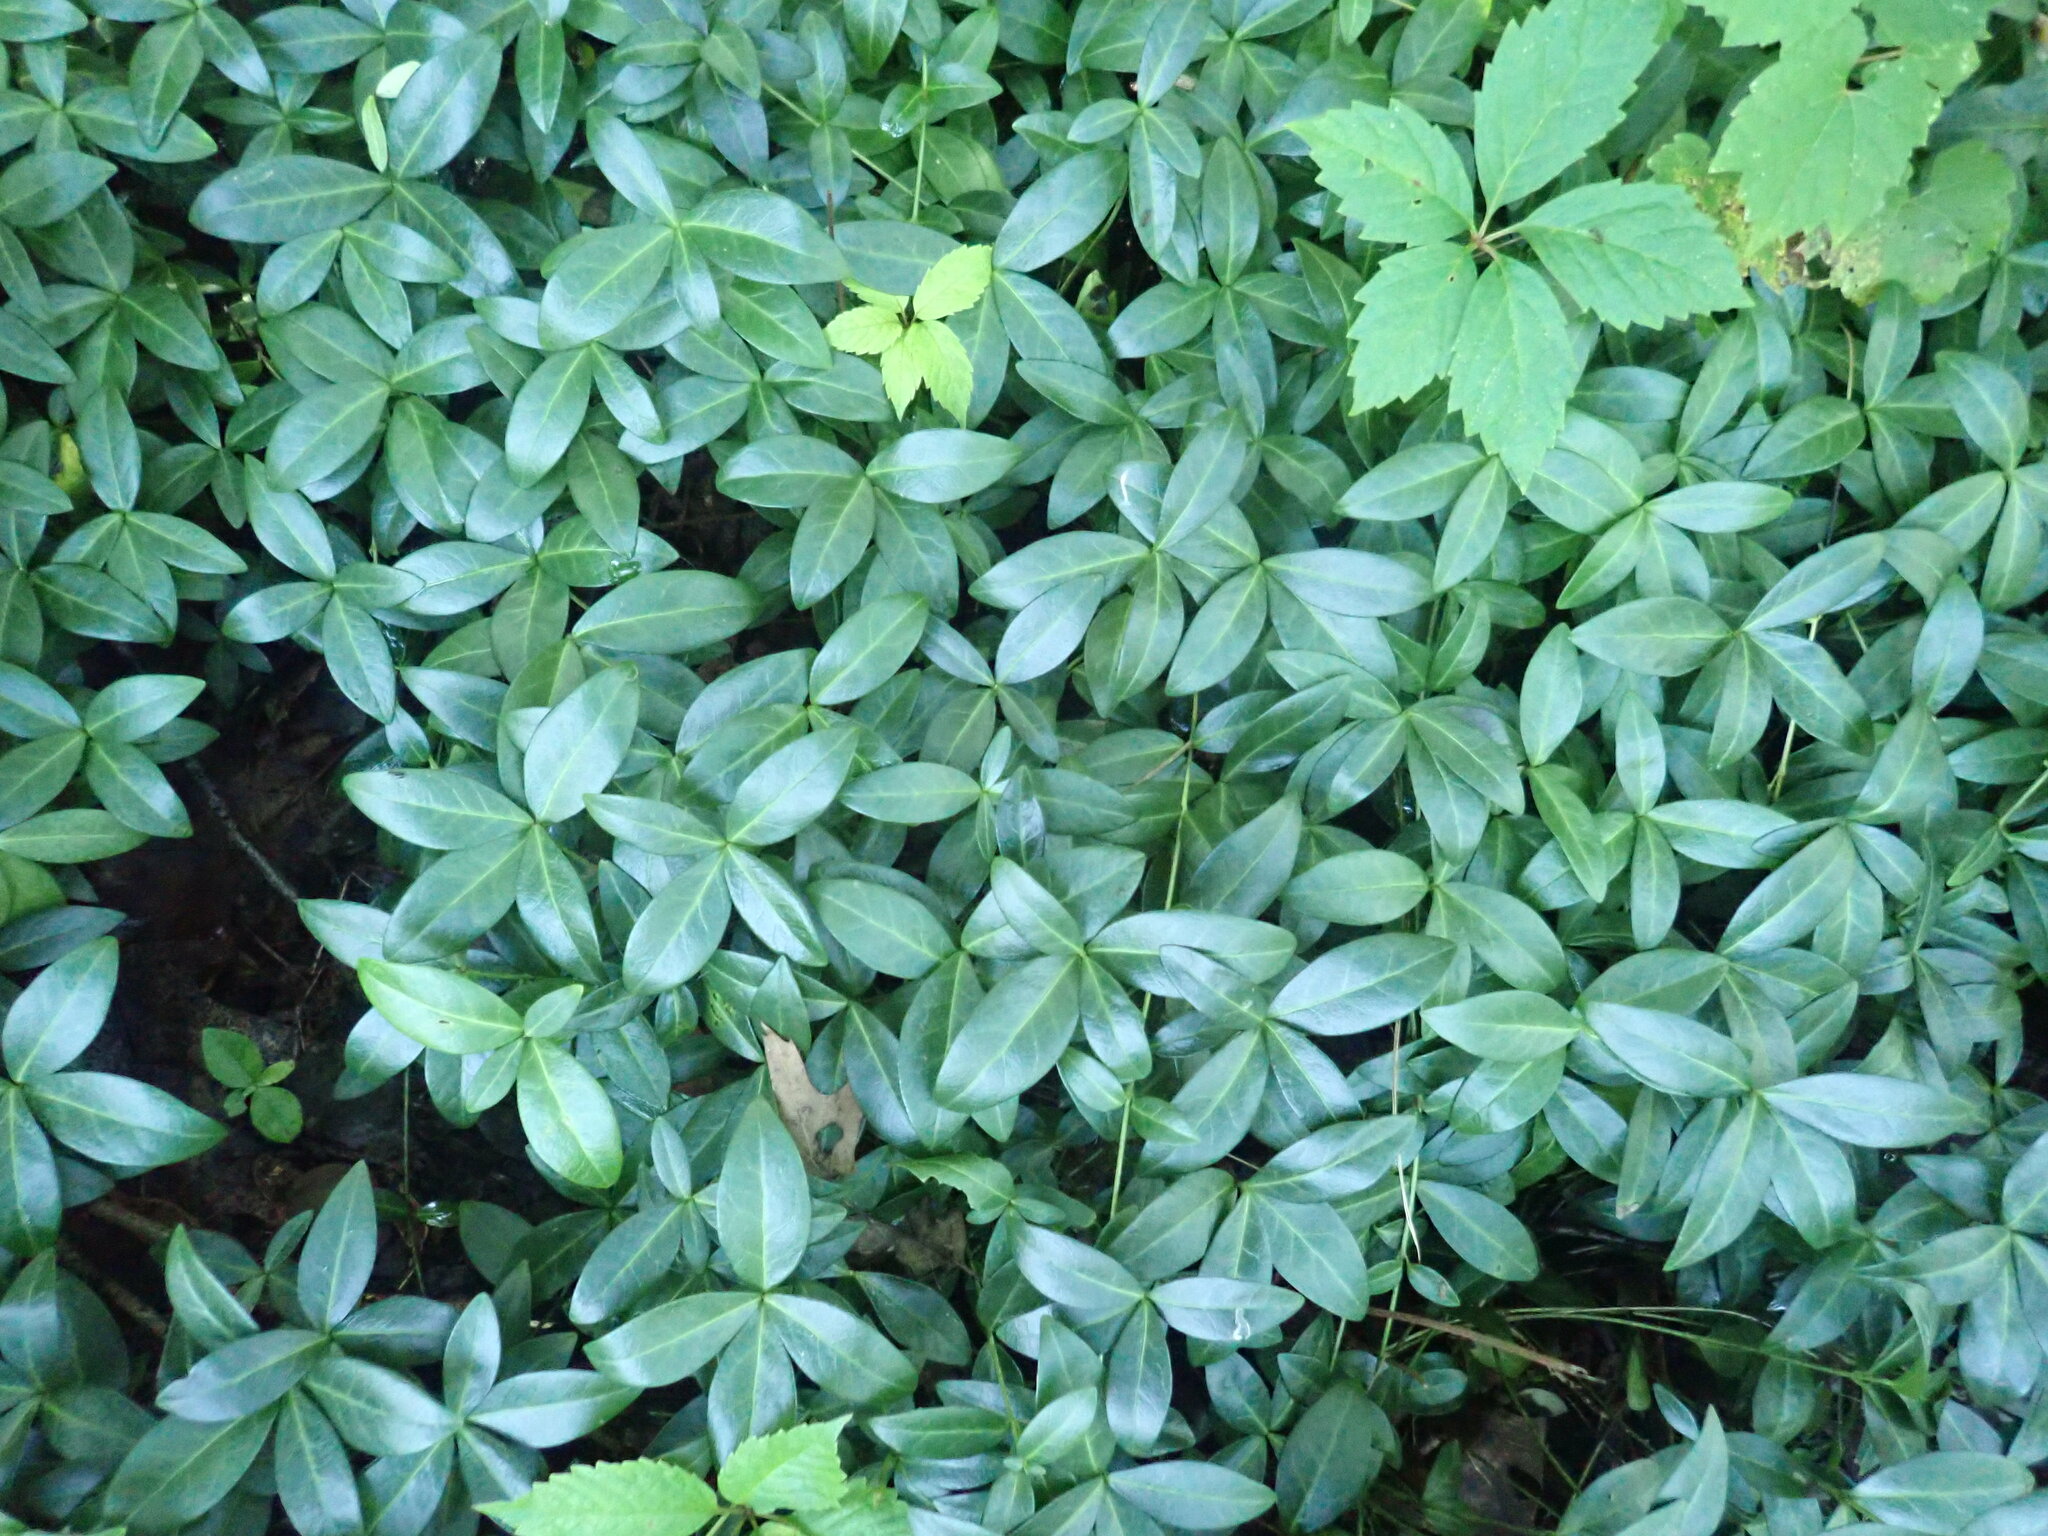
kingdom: Plantae
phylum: Tracheophyta
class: Magnoliopsida
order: Gentianales
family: Apocynaceae
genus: Vinca
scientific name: Vinca minor
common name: Lesser periwinkle
